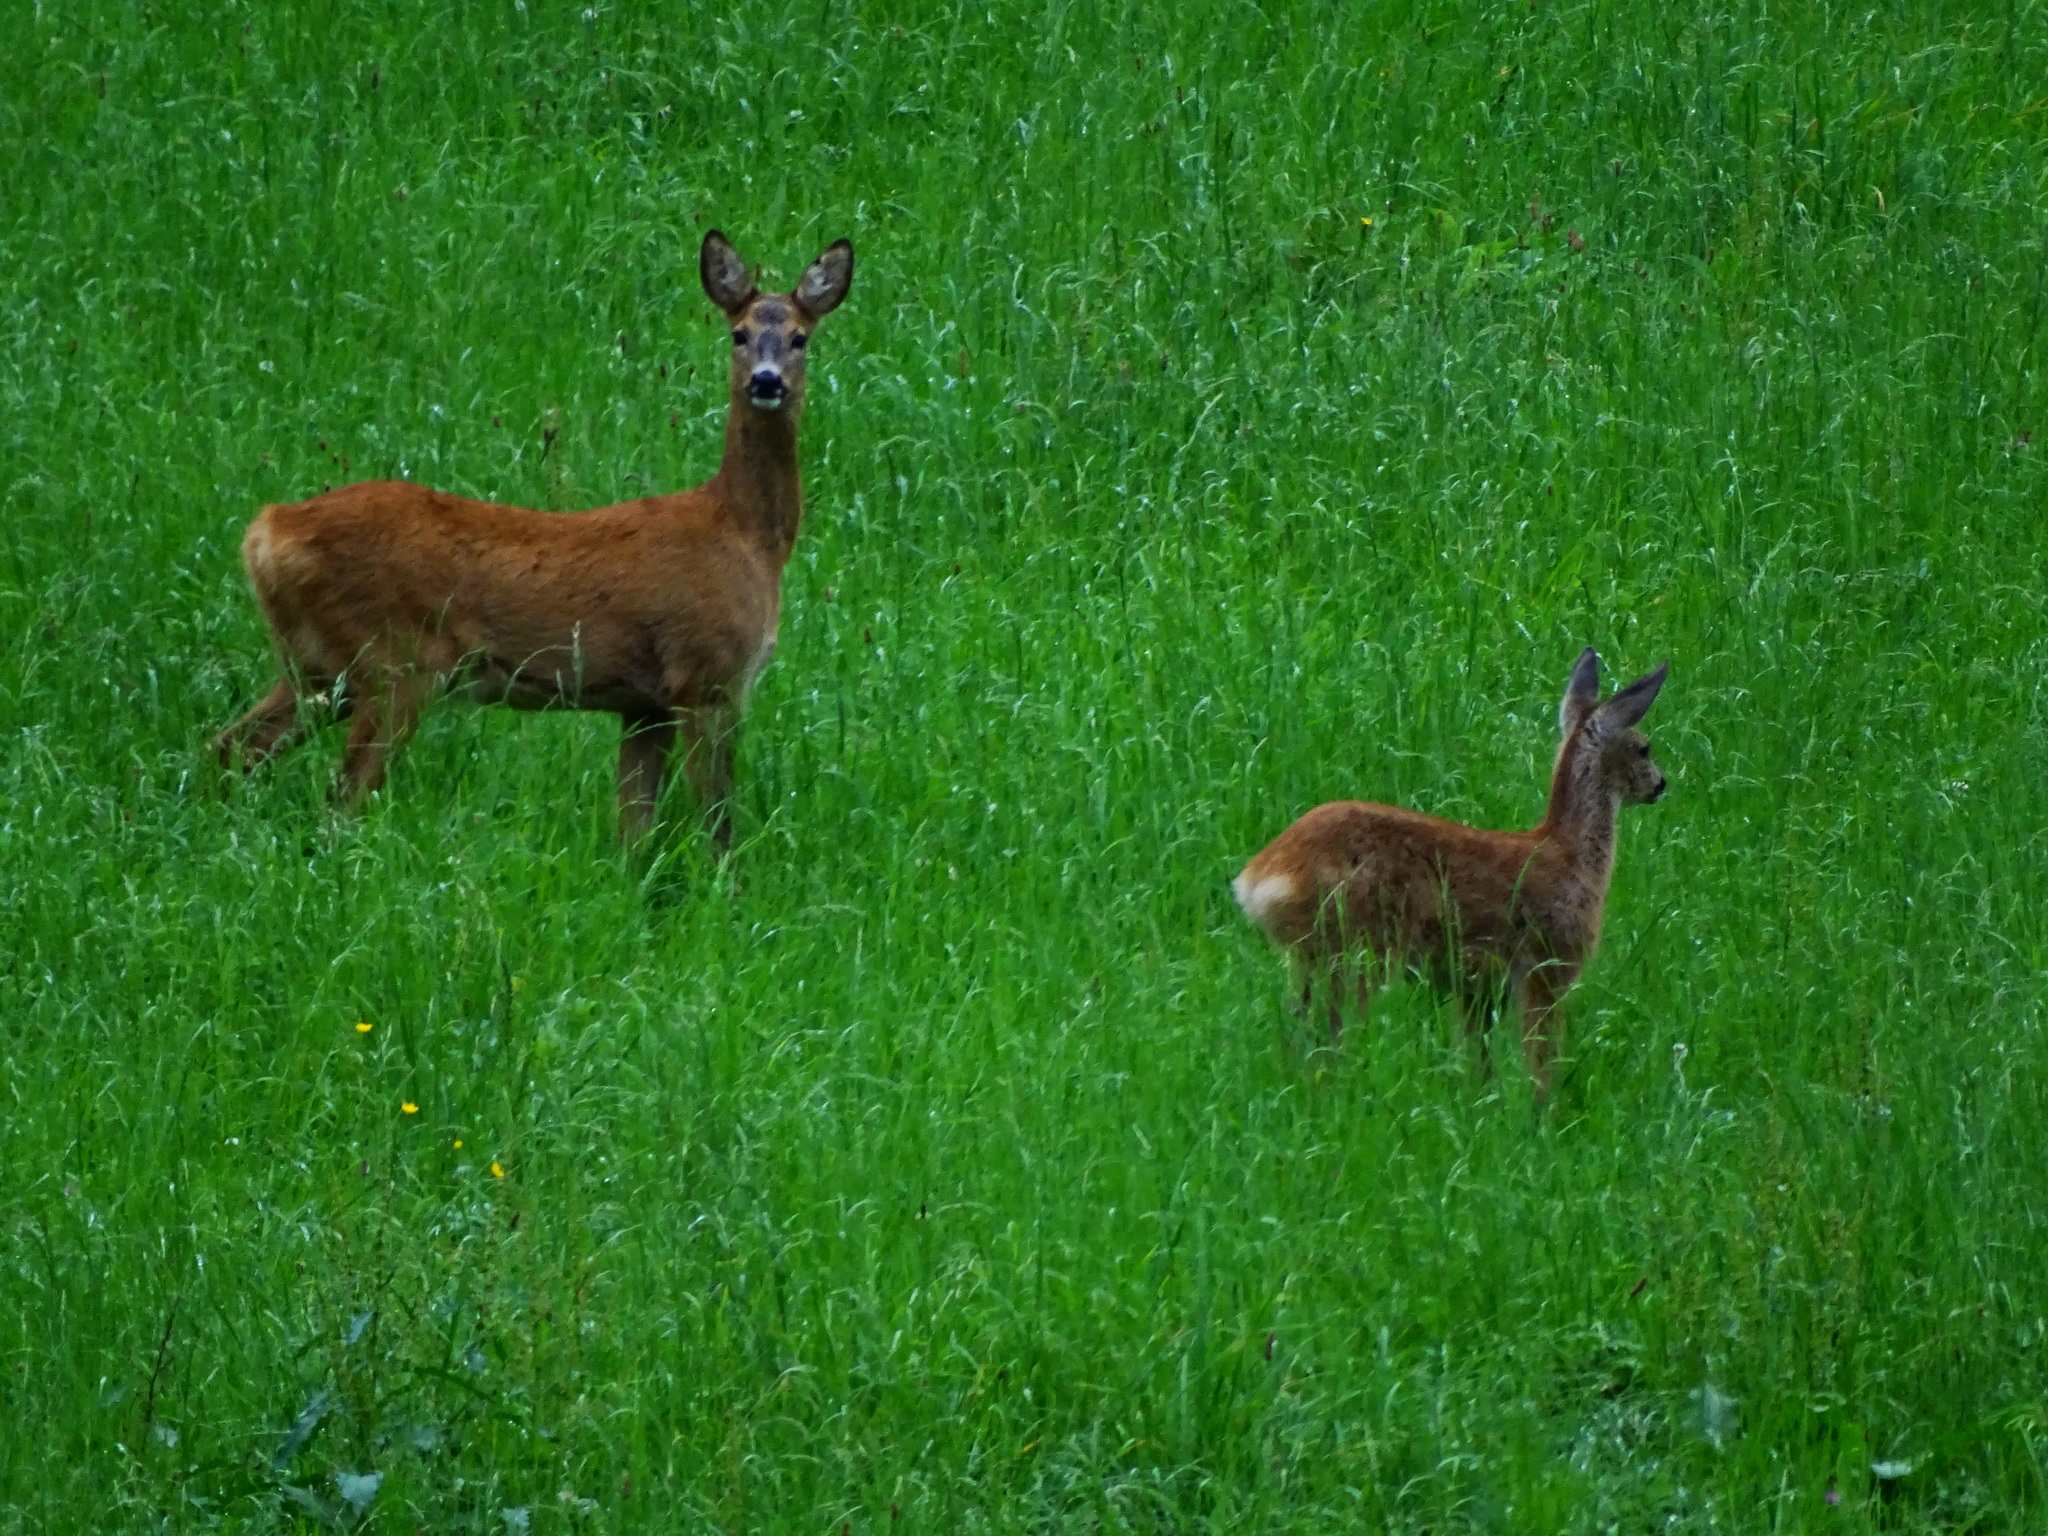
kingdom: Animalia
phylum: Chordata
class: Mammalia
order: Artiodactyla
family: Cervidae
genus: Capreolus
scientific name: Capreolus capreolus
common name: Western roe deer
